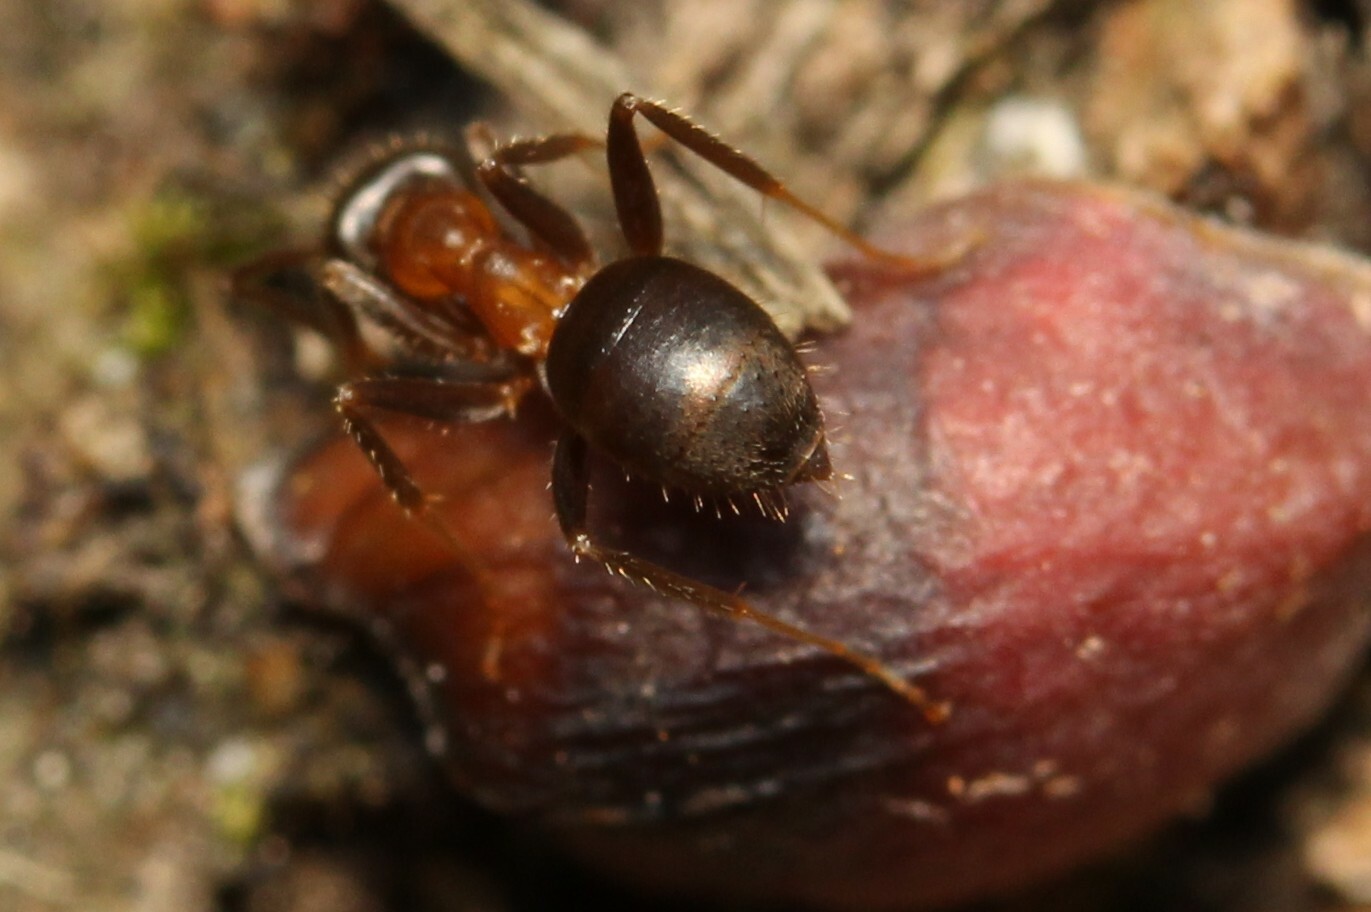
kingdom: Animalia
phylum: Arthropoda
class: Insecta
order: Hymenoptera
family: Formicidae
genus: Lasius
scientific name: Lasius emarginatus
